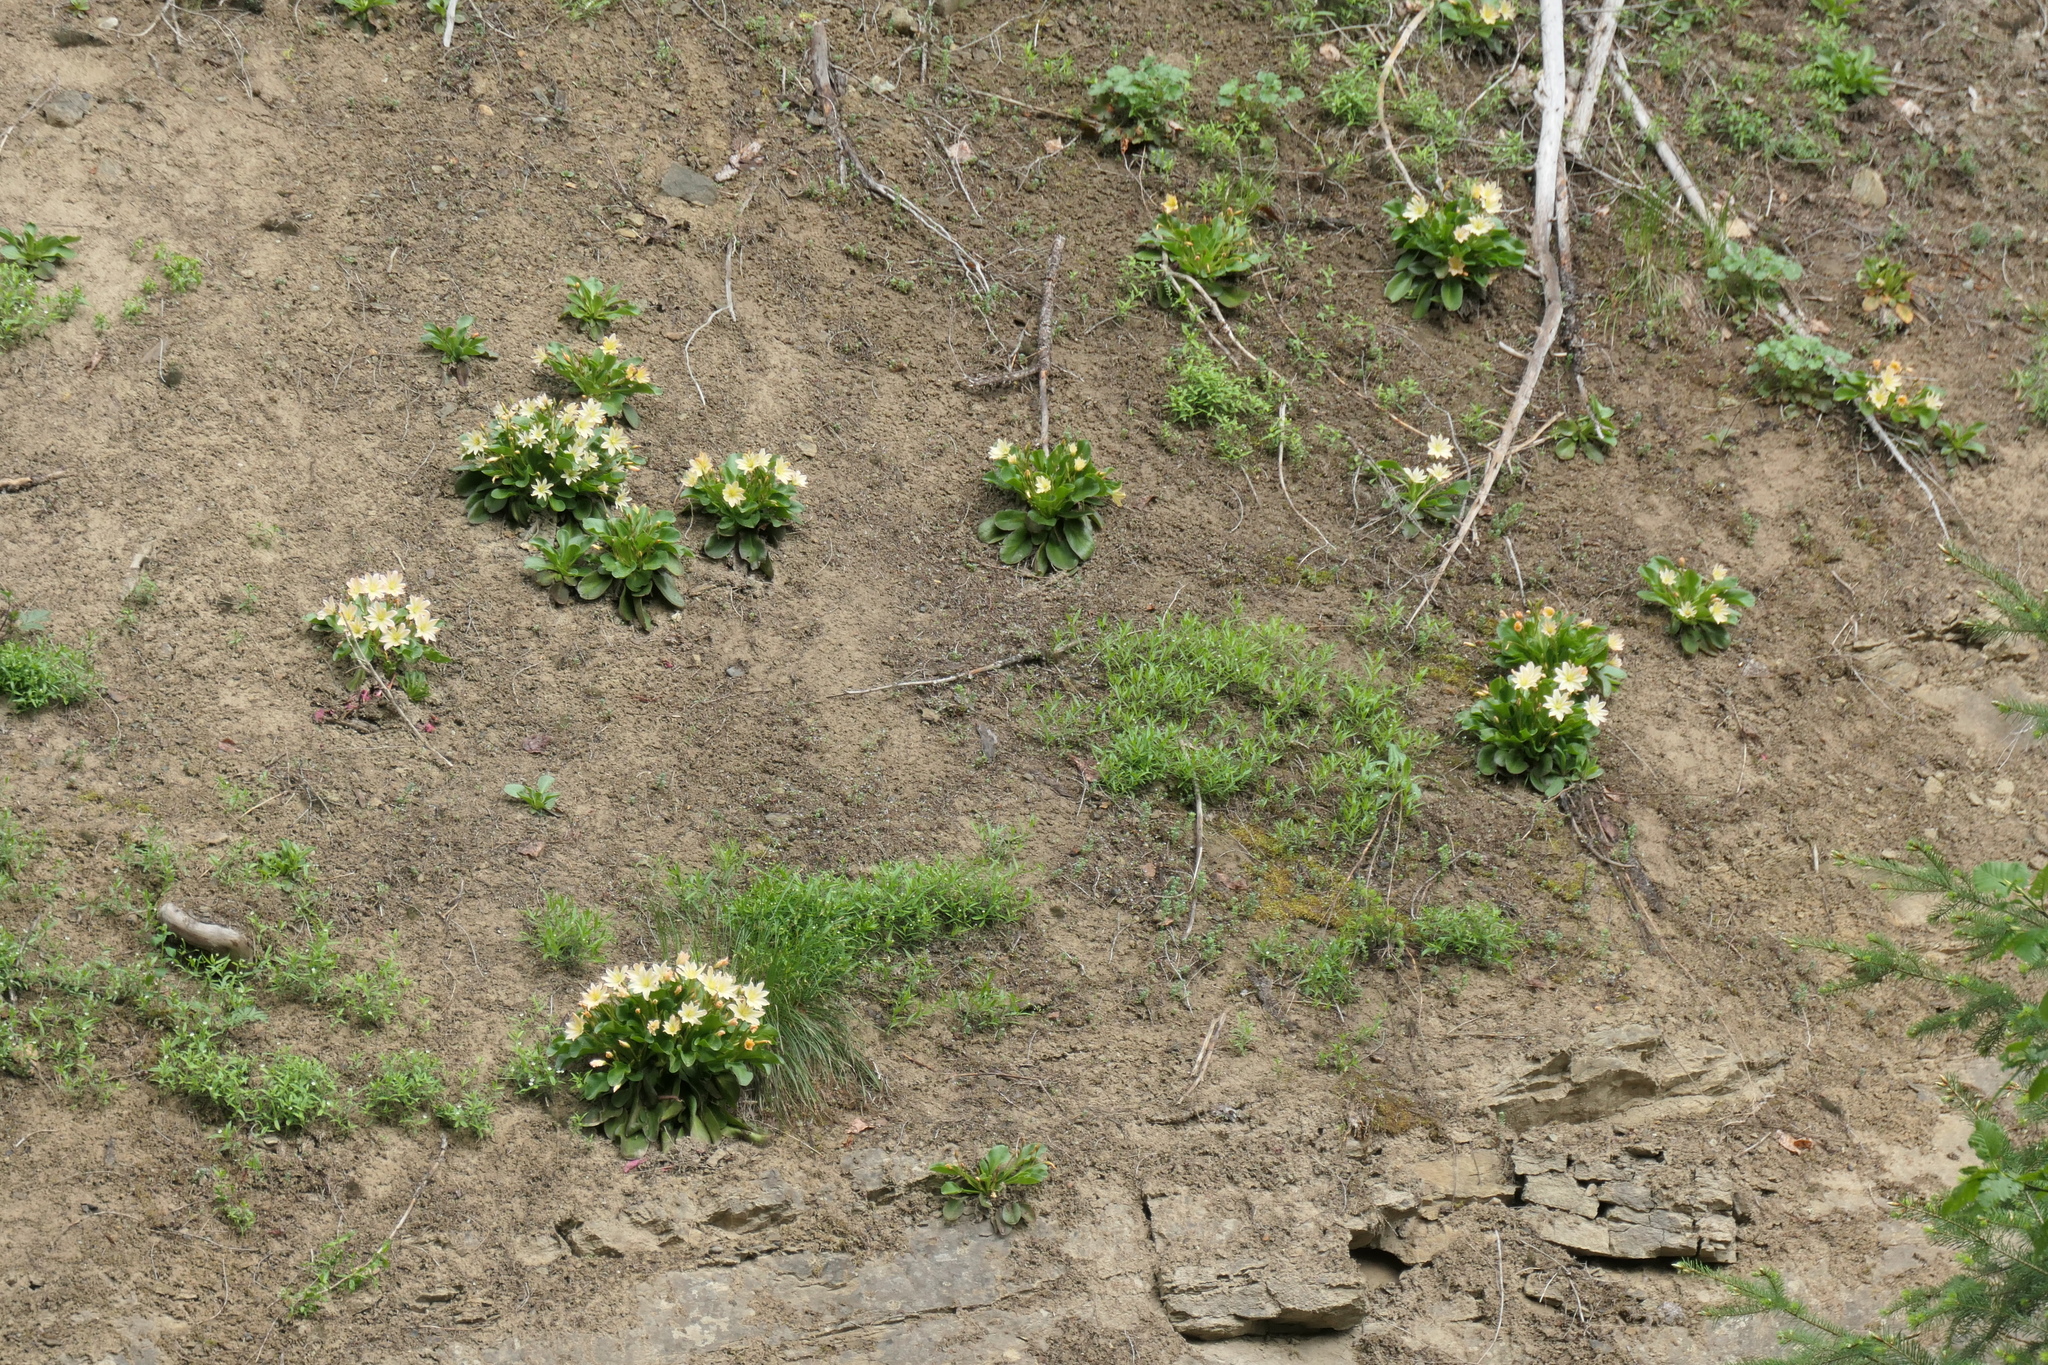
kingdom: Plantae
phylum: Tracheophyta
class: Magnoliopsida
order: Caryophyllales
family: Montiaceae
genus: Lewisiopsis
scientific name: Lewisiopsis tweedyi
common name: Tweedy's pussypaws
